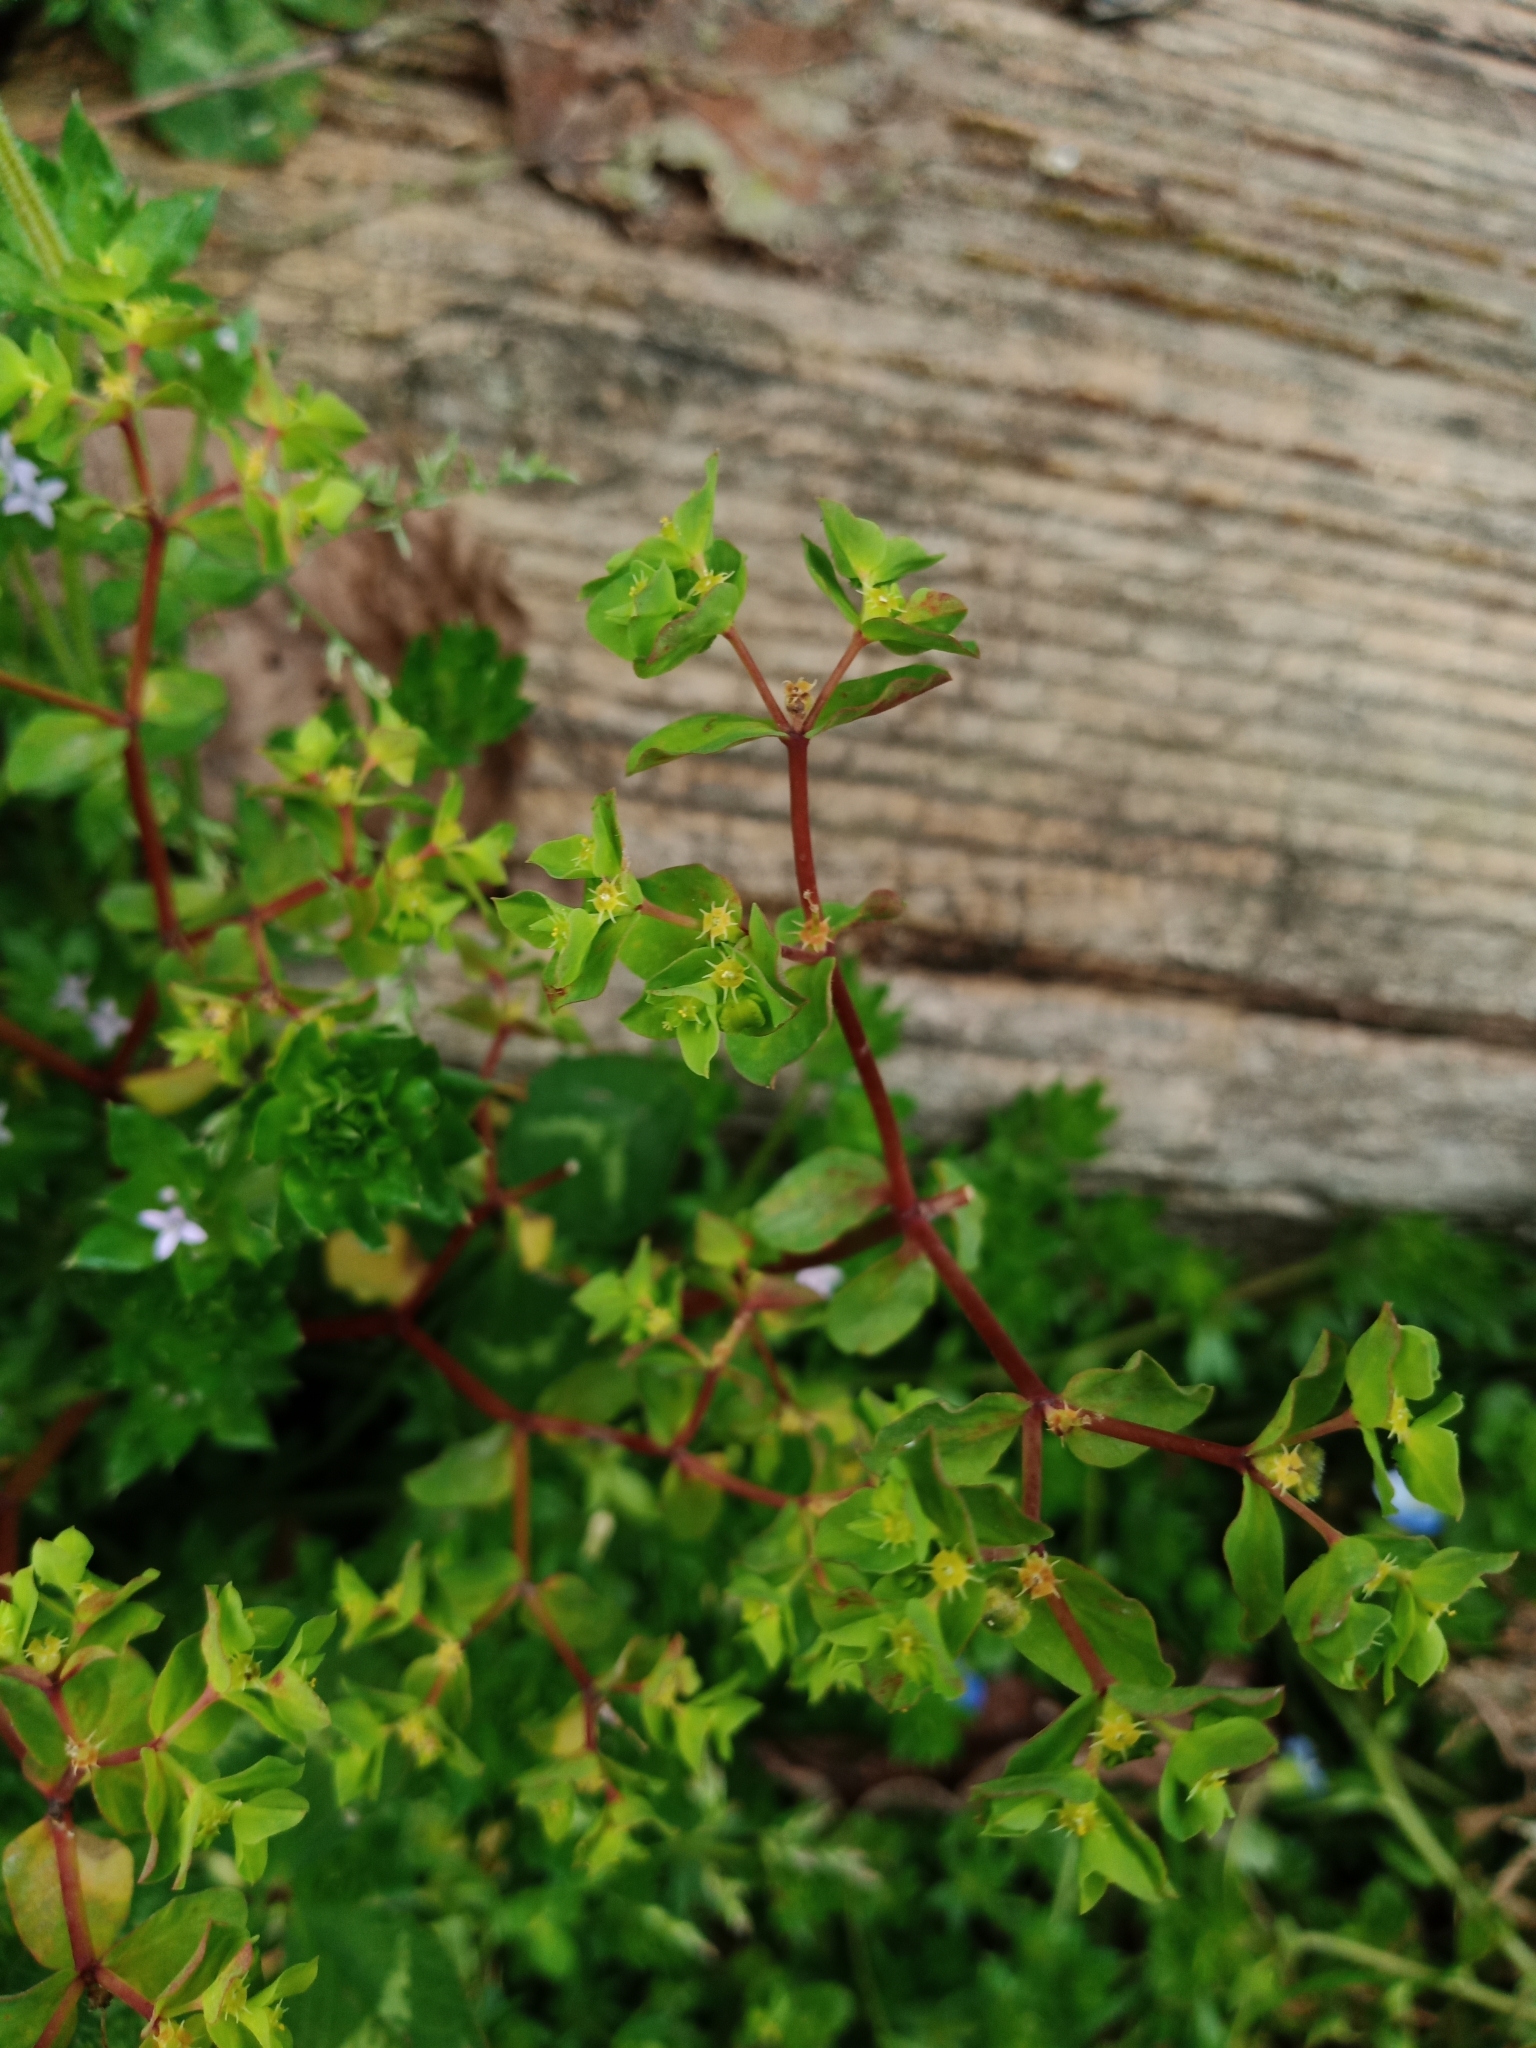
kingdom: Plantae
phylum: Tracheophyta
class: Magnoliopsida
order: Malpighiales
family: Euphorbiaceae
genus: Euphorbia
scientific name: Euphorbia peplus
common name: Petty spurge
